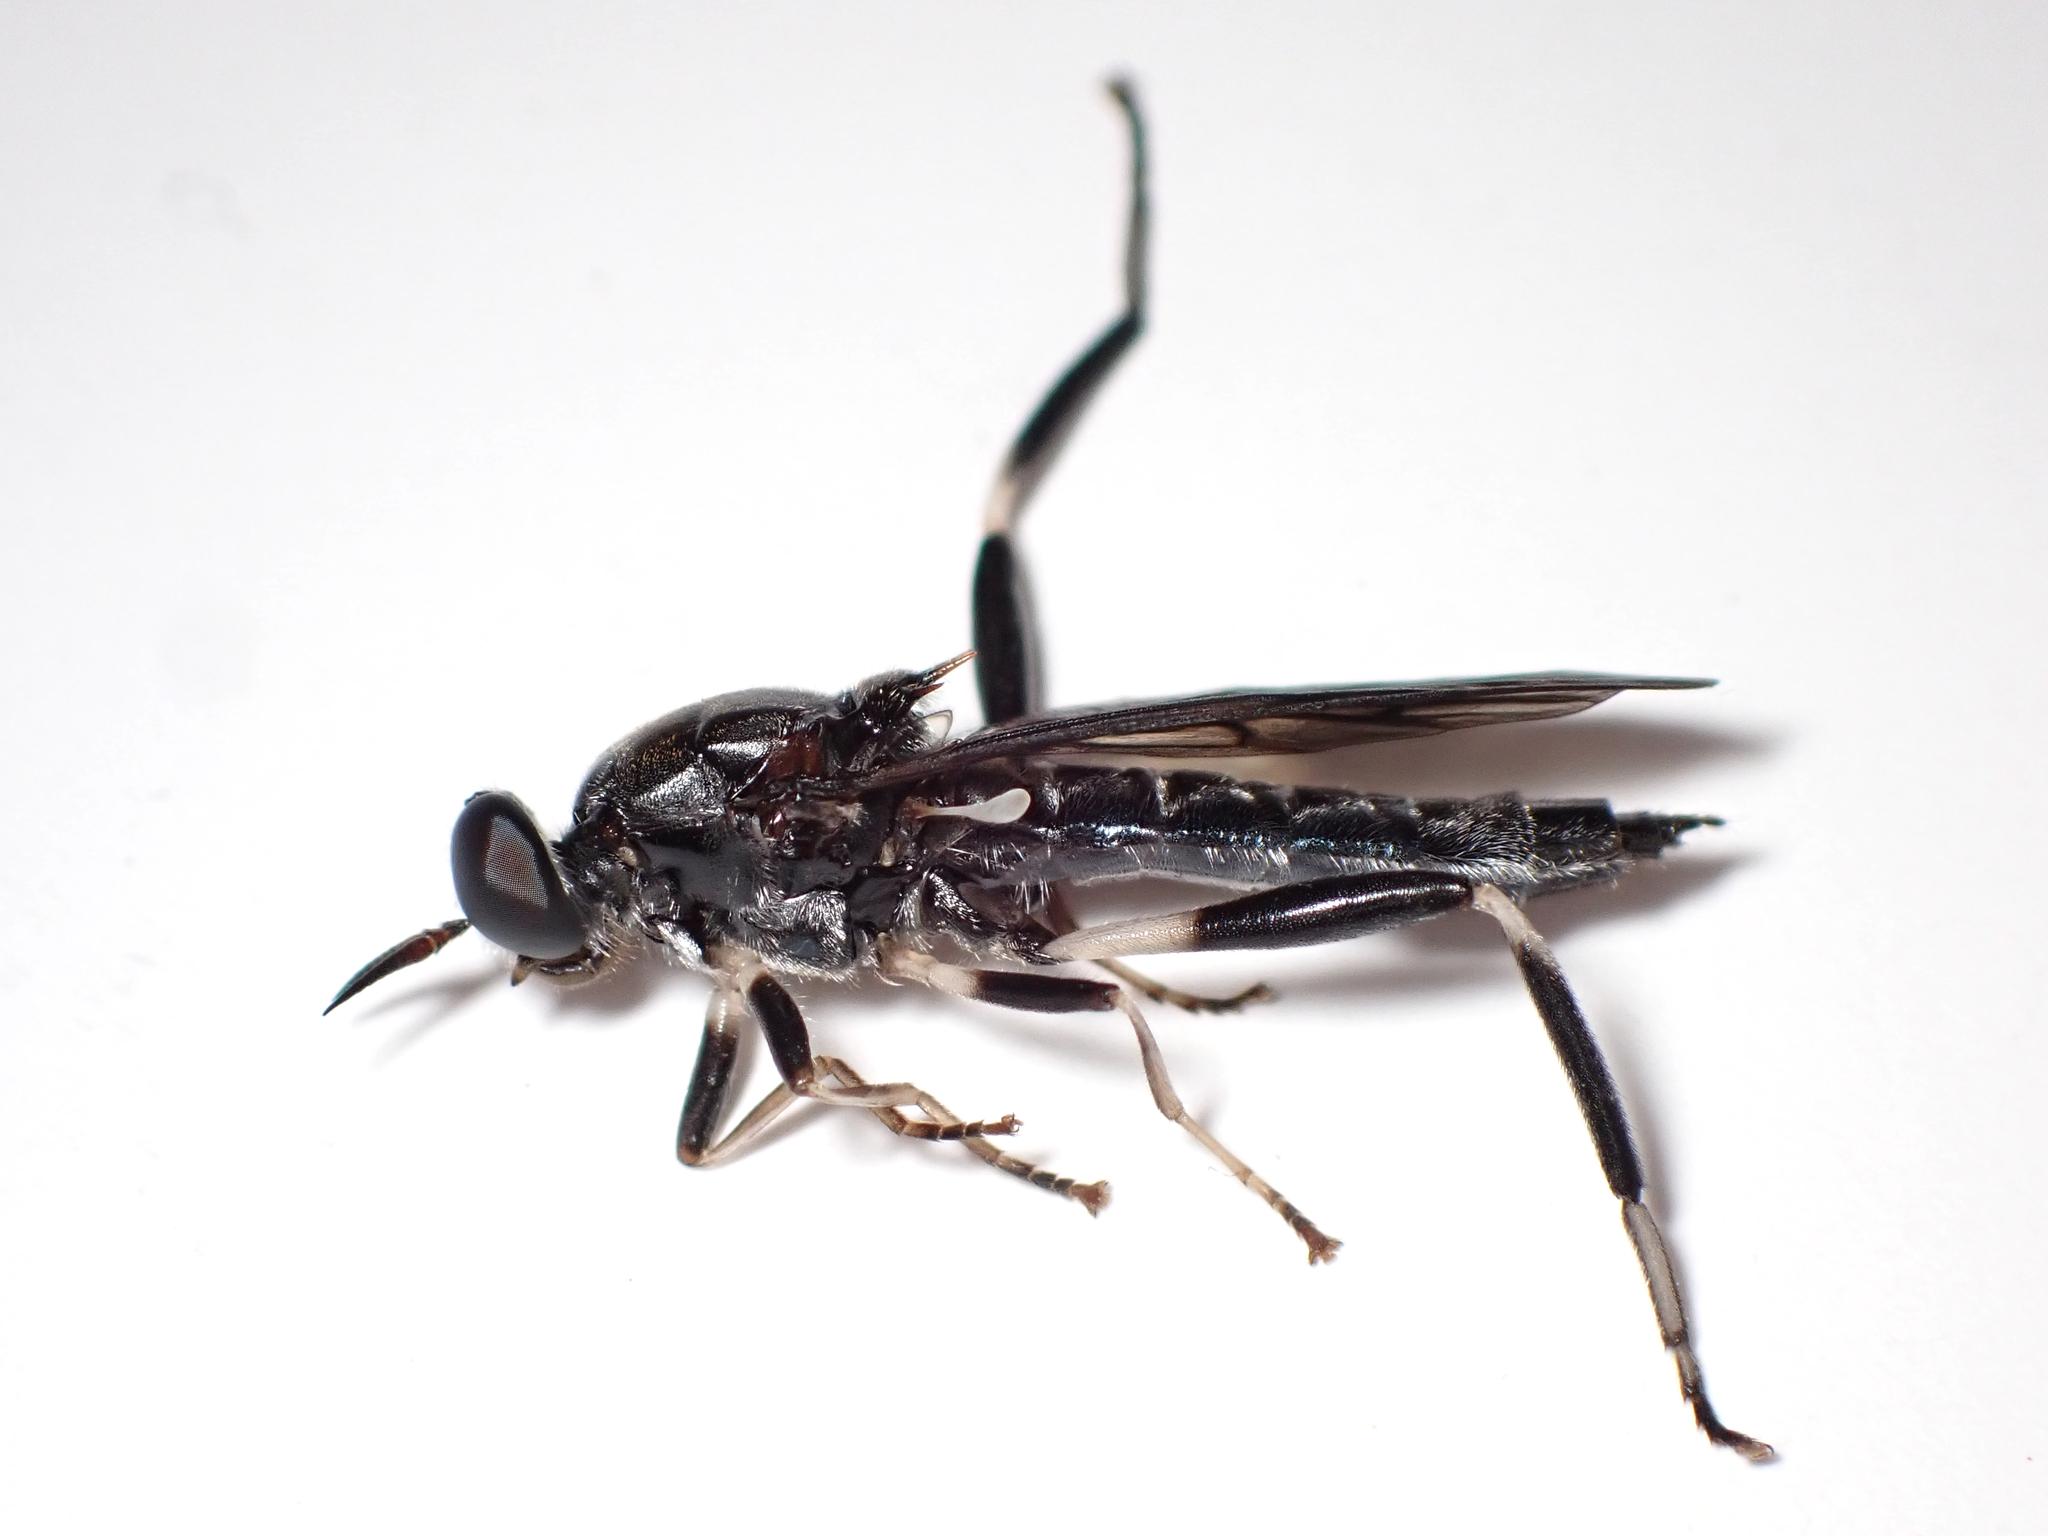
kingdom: Animalia
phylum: Arthropoda
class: Insecta
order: Diptera
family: Stratiomyidae
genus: Exaireta
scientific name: Exaireta spinigera
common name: Blue soldier fly
